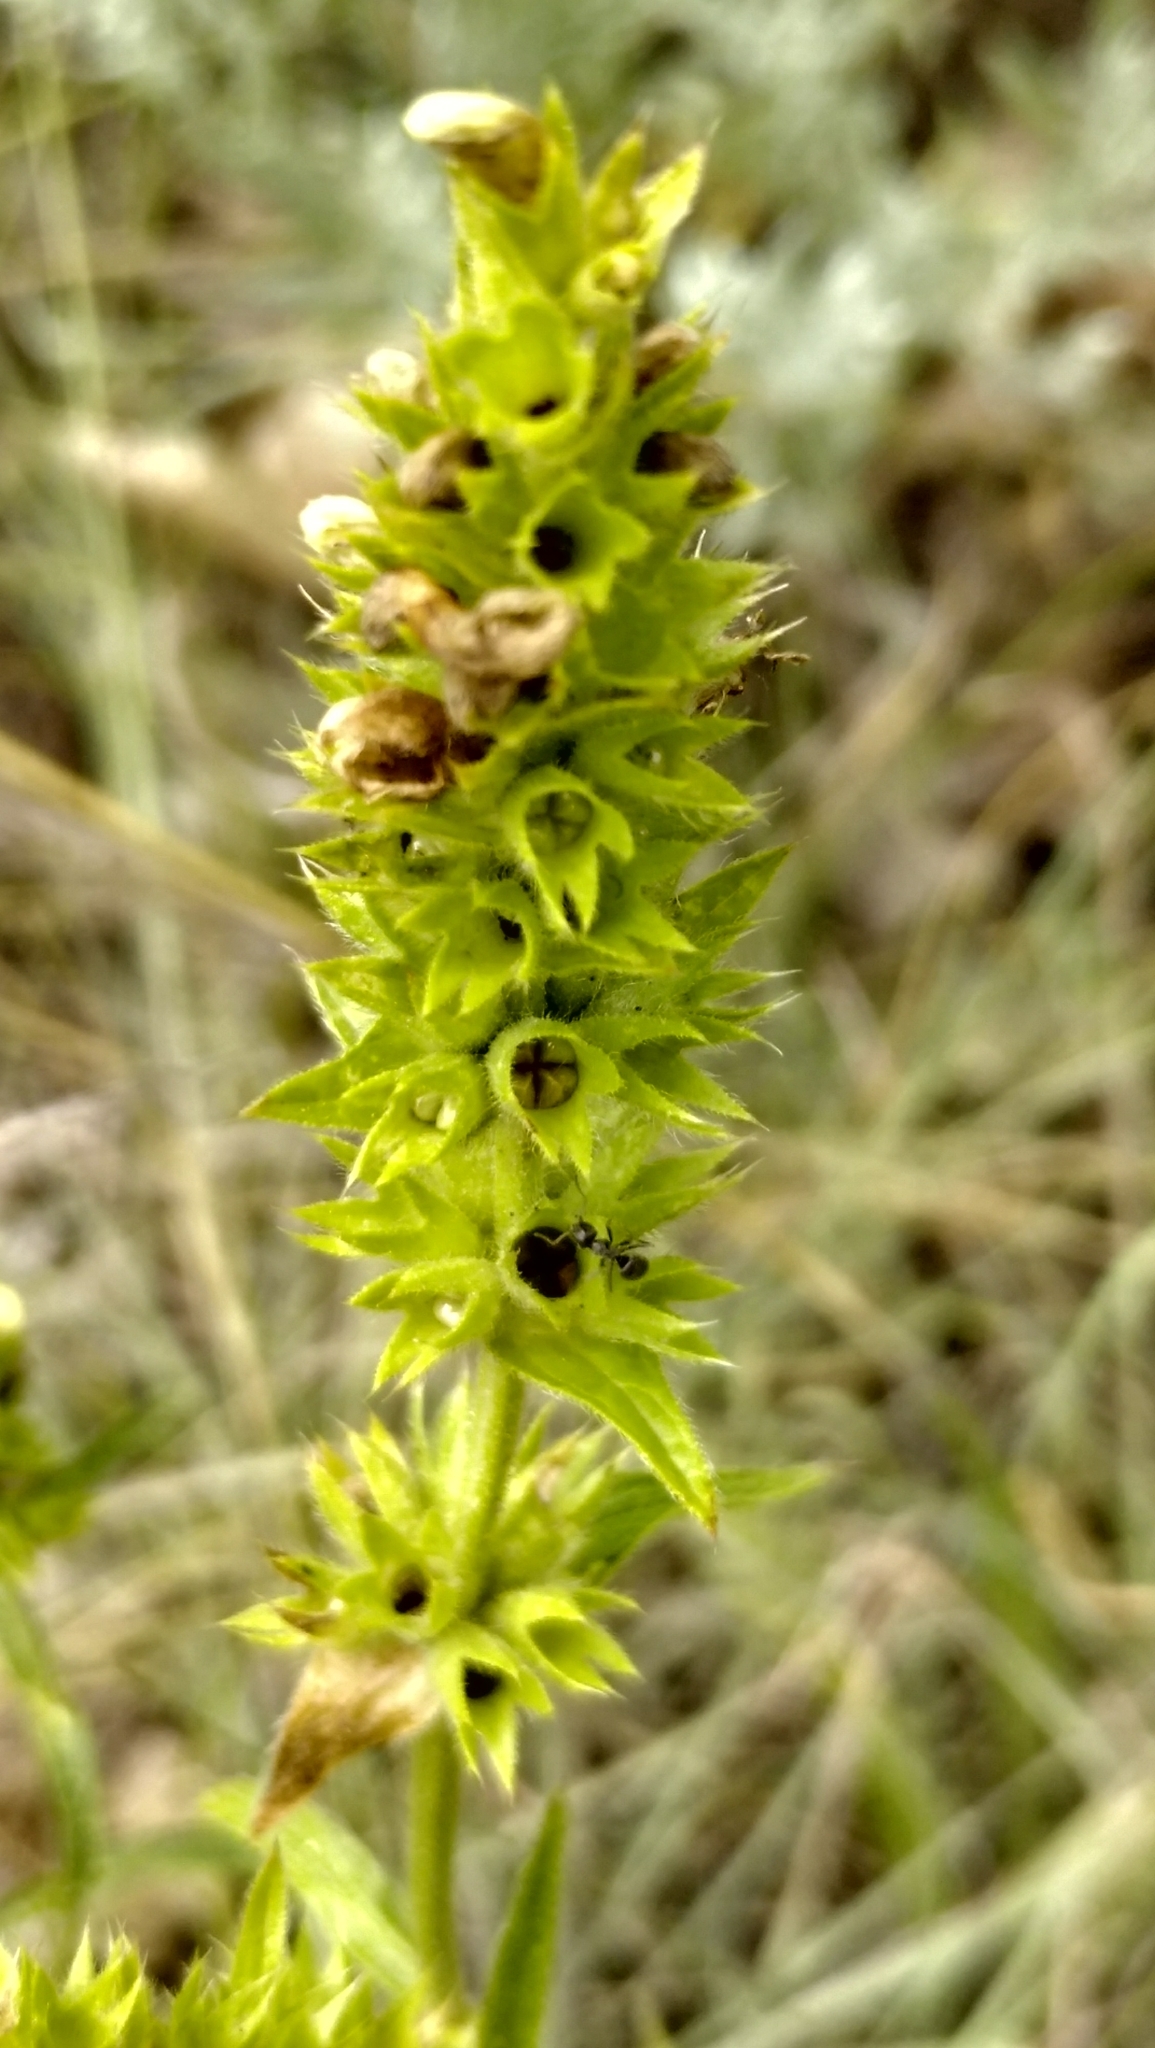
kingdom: Plantae
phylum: Tracheophyta
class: Magnoliopsida
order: Lamiales
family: Lamiaceae
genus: Stachys
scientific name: Stachys recta
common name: Perennial yellow-woundwort
